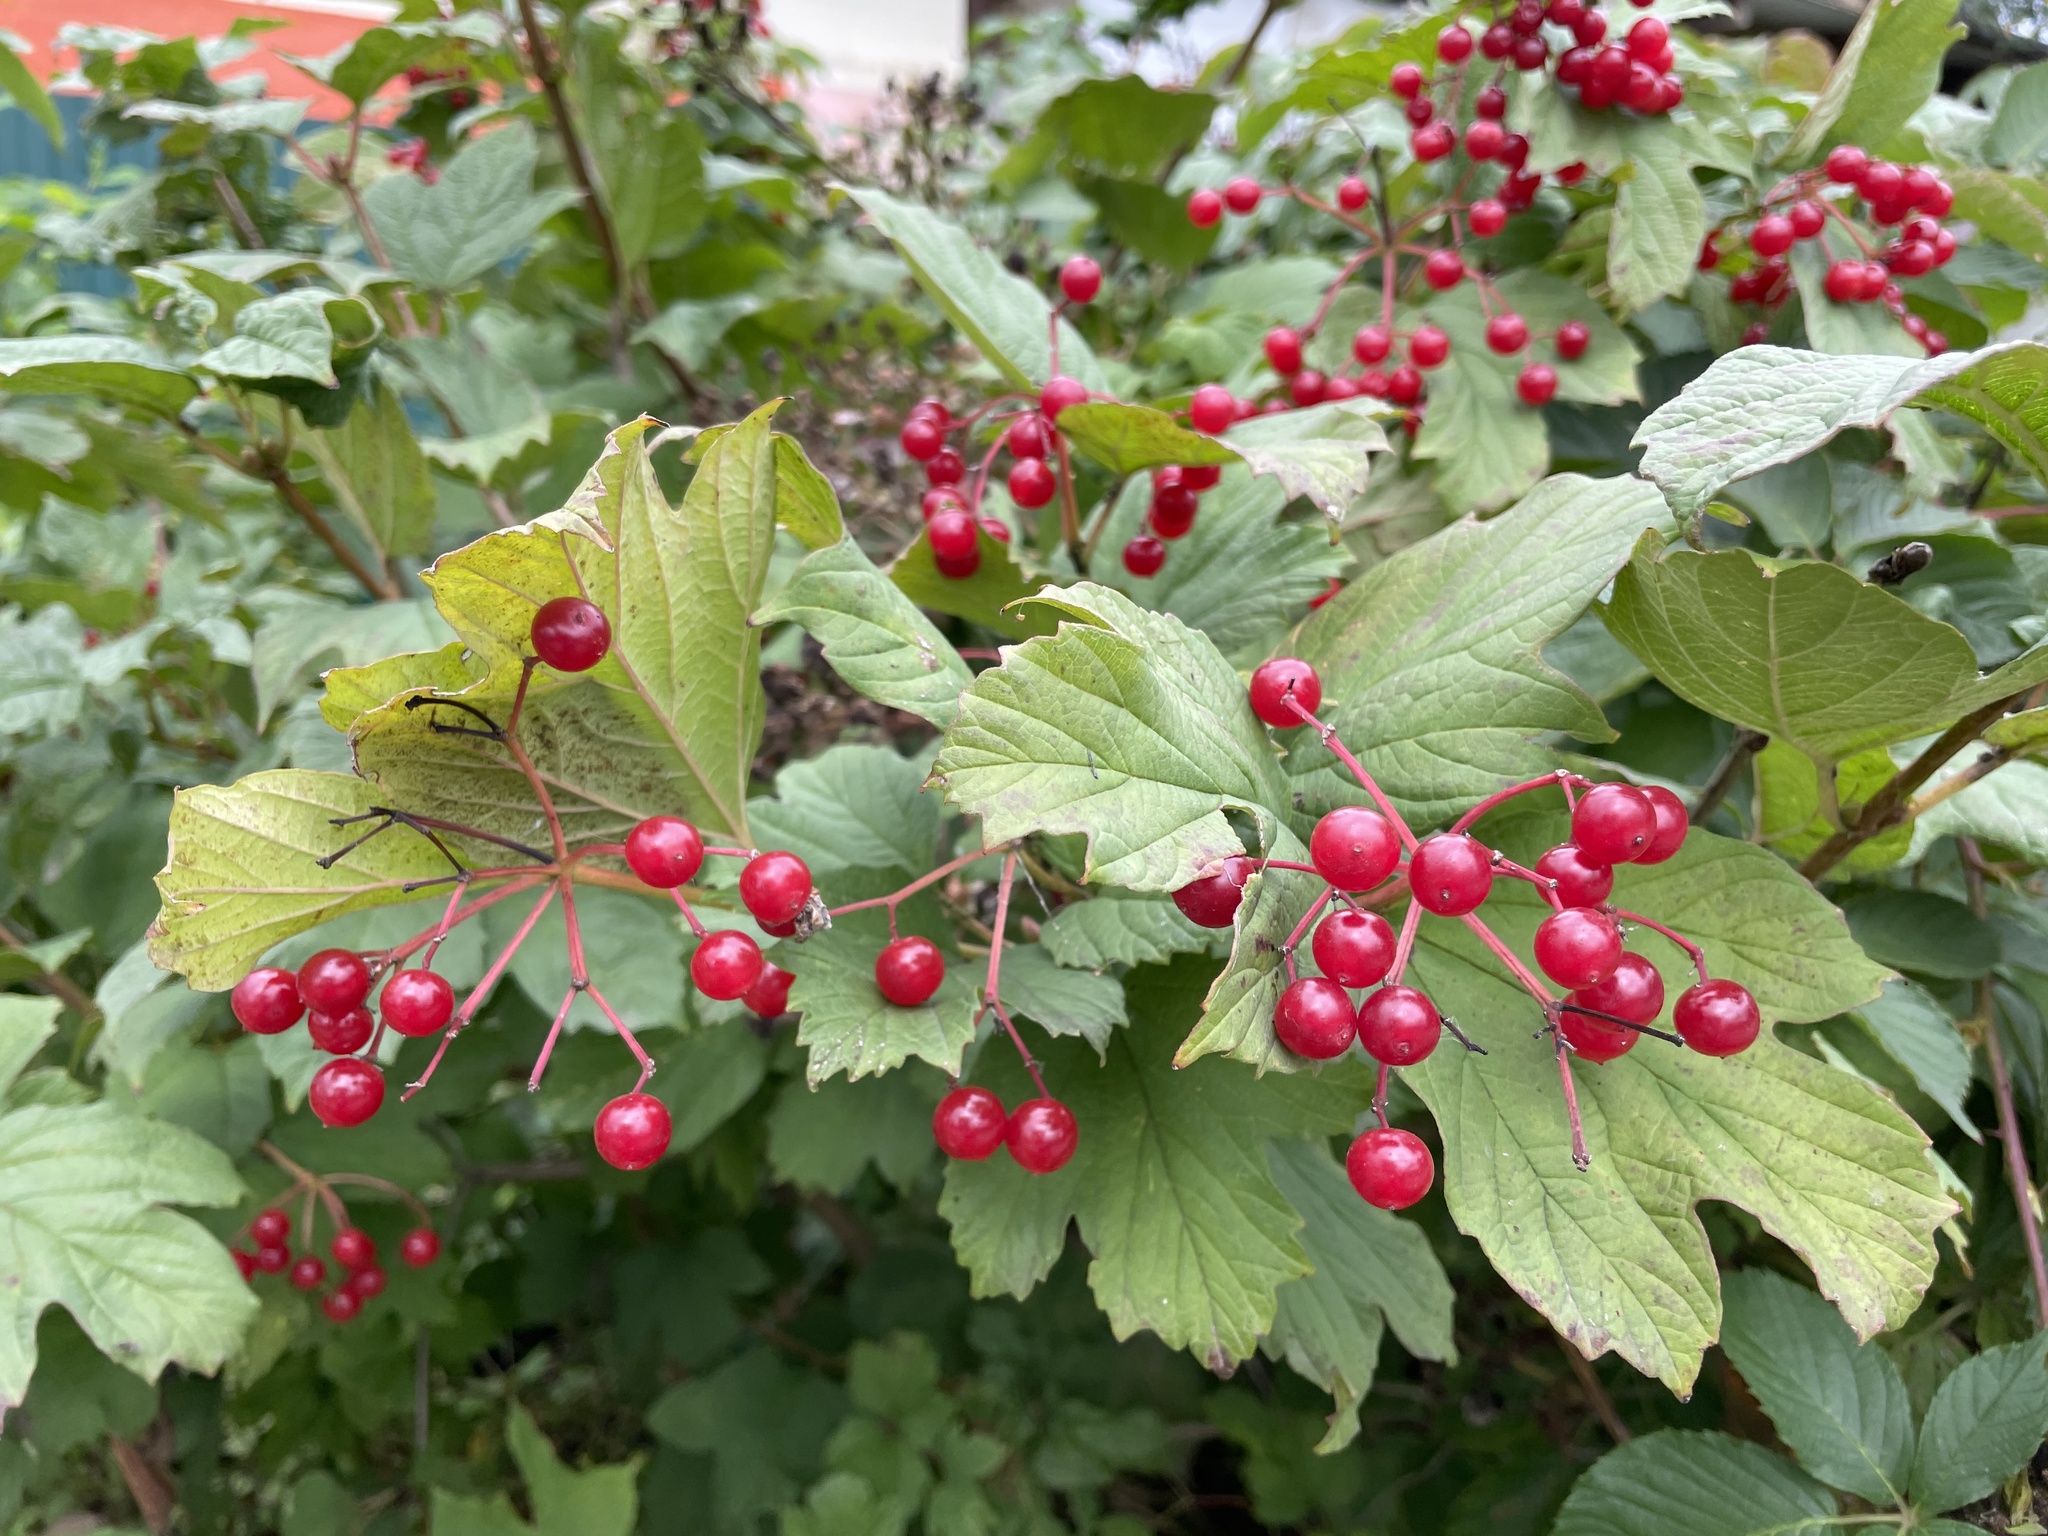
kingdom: Plantae
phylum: Tracheophyta
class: Magnoliopsida
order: Dipsacales
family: Viburnaceae
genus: Viburnum
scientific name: Viburnum opulus
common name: Guelder-rose
